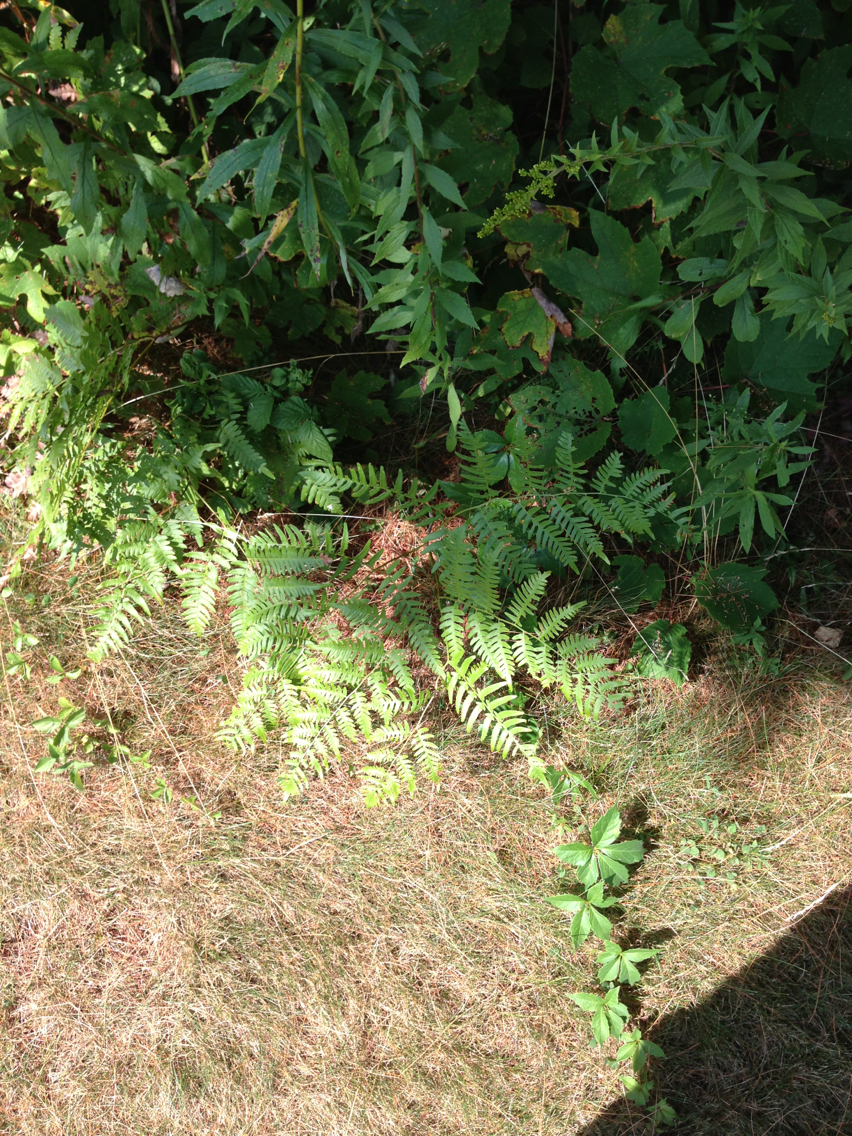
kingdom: Plantae
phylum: Tracheophyta
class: Polypodiopsida
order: Polypodiales
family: Dennstaedtiaceae
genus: Pteridium
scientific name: Pteridium aquilinum
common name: Bracken
